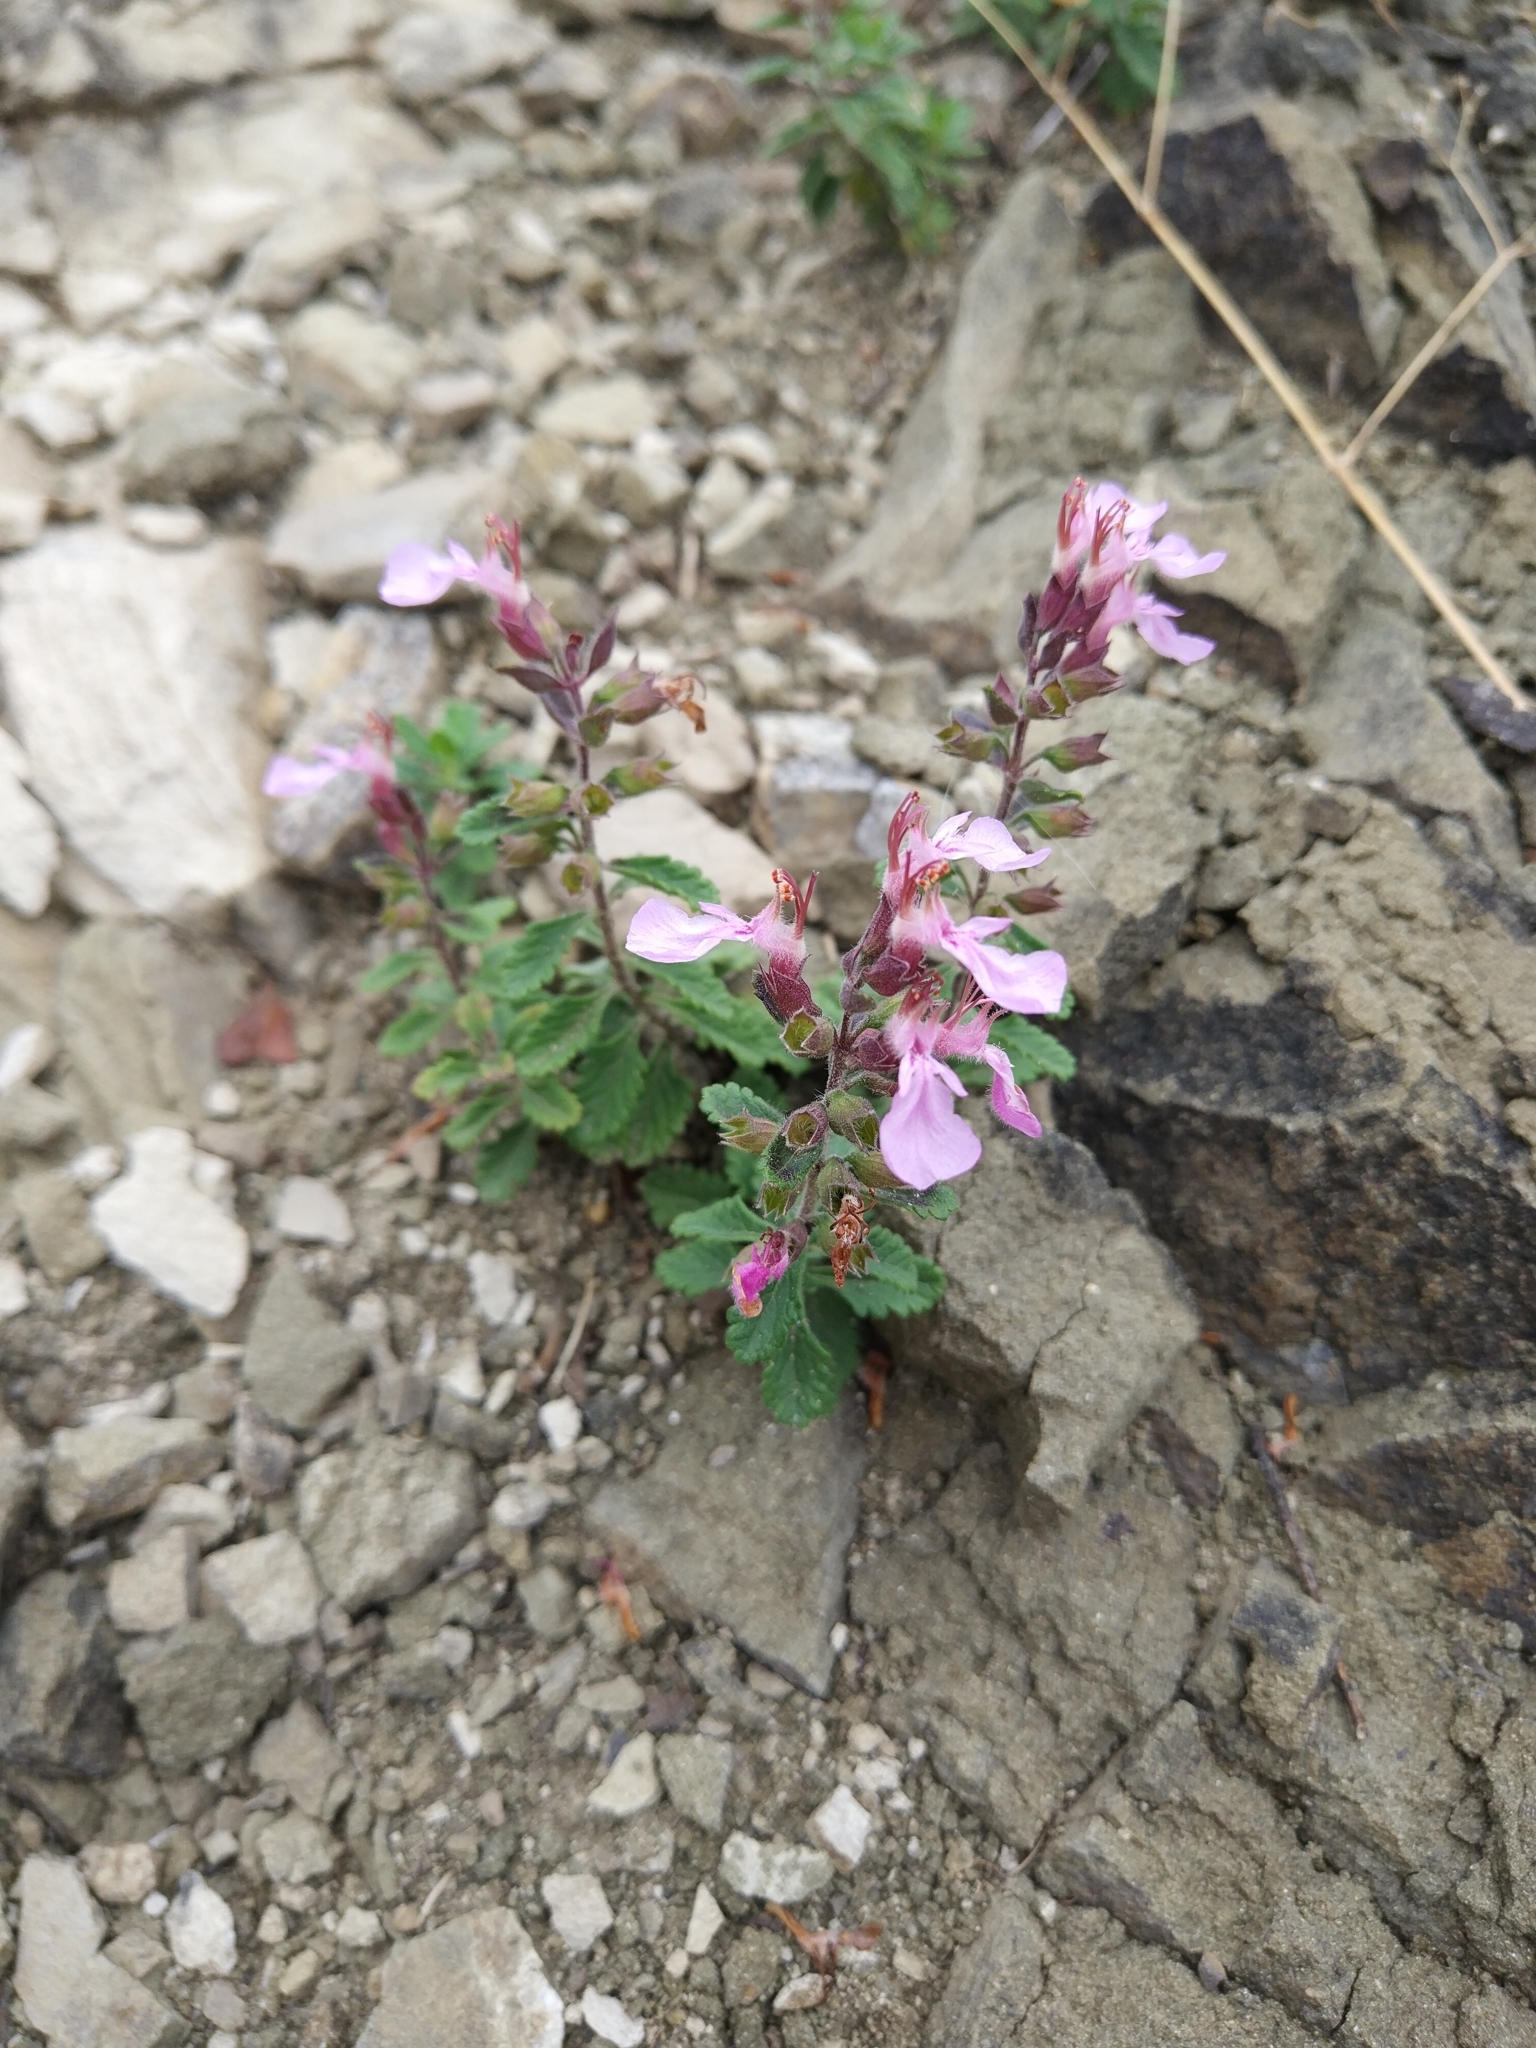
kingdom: Plantae
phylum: Tracheophyta
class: Magnoliopsida
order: Lamiales
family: Lamiaceae
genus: Teucrium
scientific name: Teucrium chamaedrys
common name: Wall germander
